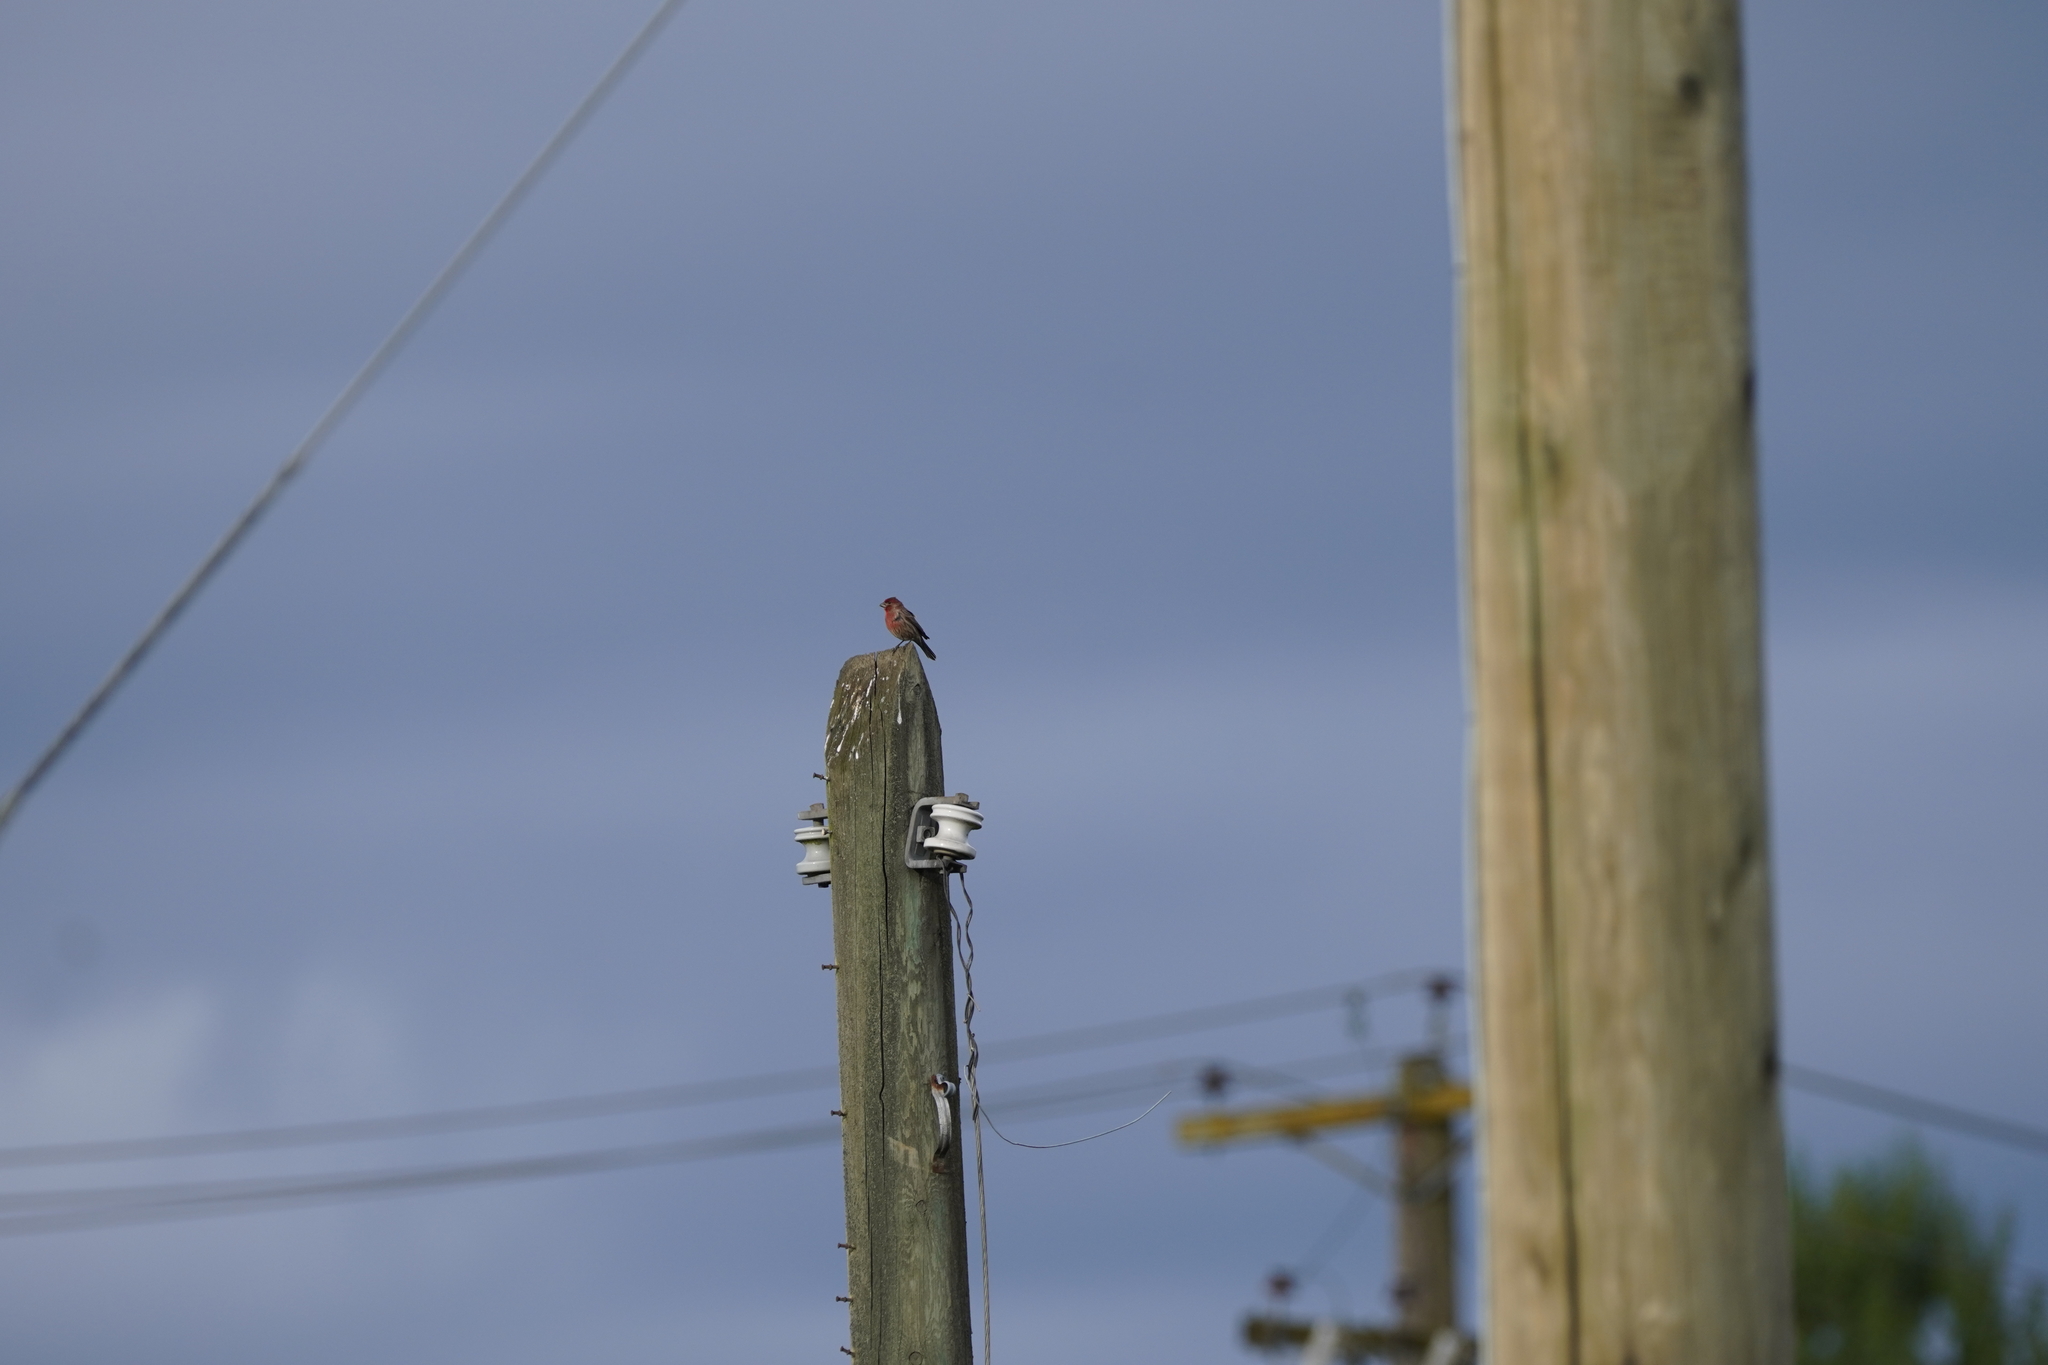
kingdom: Animalia
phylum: Chordata
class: Aves
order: Passeriformes
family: Fringillidae
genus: Haemorhous
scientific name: Haemorhous mexicanus
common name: House finch
